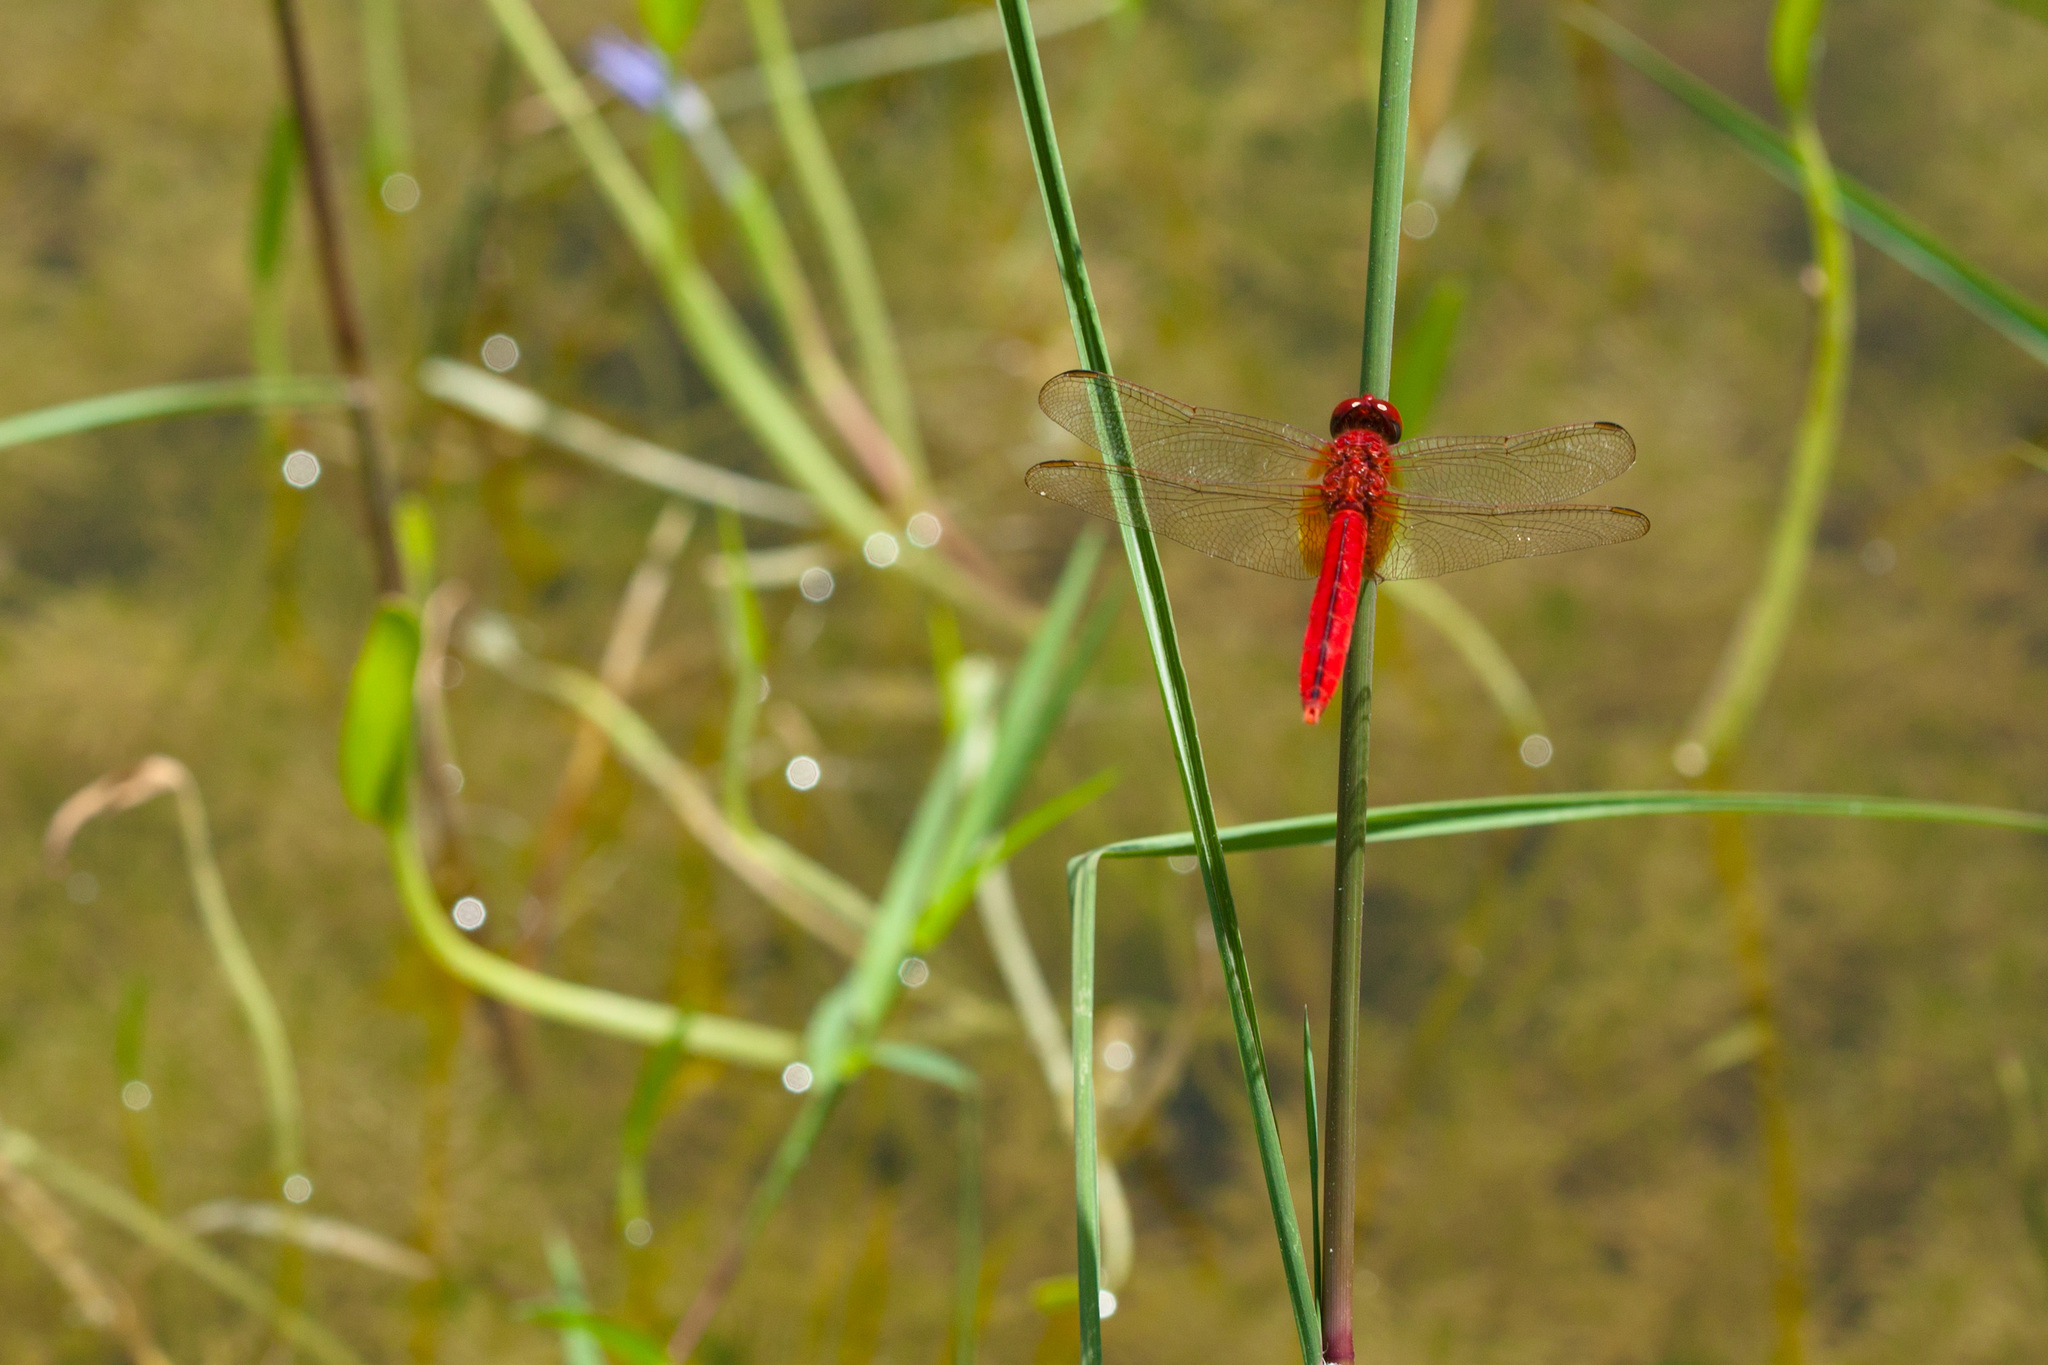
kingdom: Animalia
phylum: Arthropoda
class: Insecta
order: Odonata
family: Libellulidae
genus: Crocothemis
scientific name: Crocothemis servilia
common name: Scarlet skimmer
